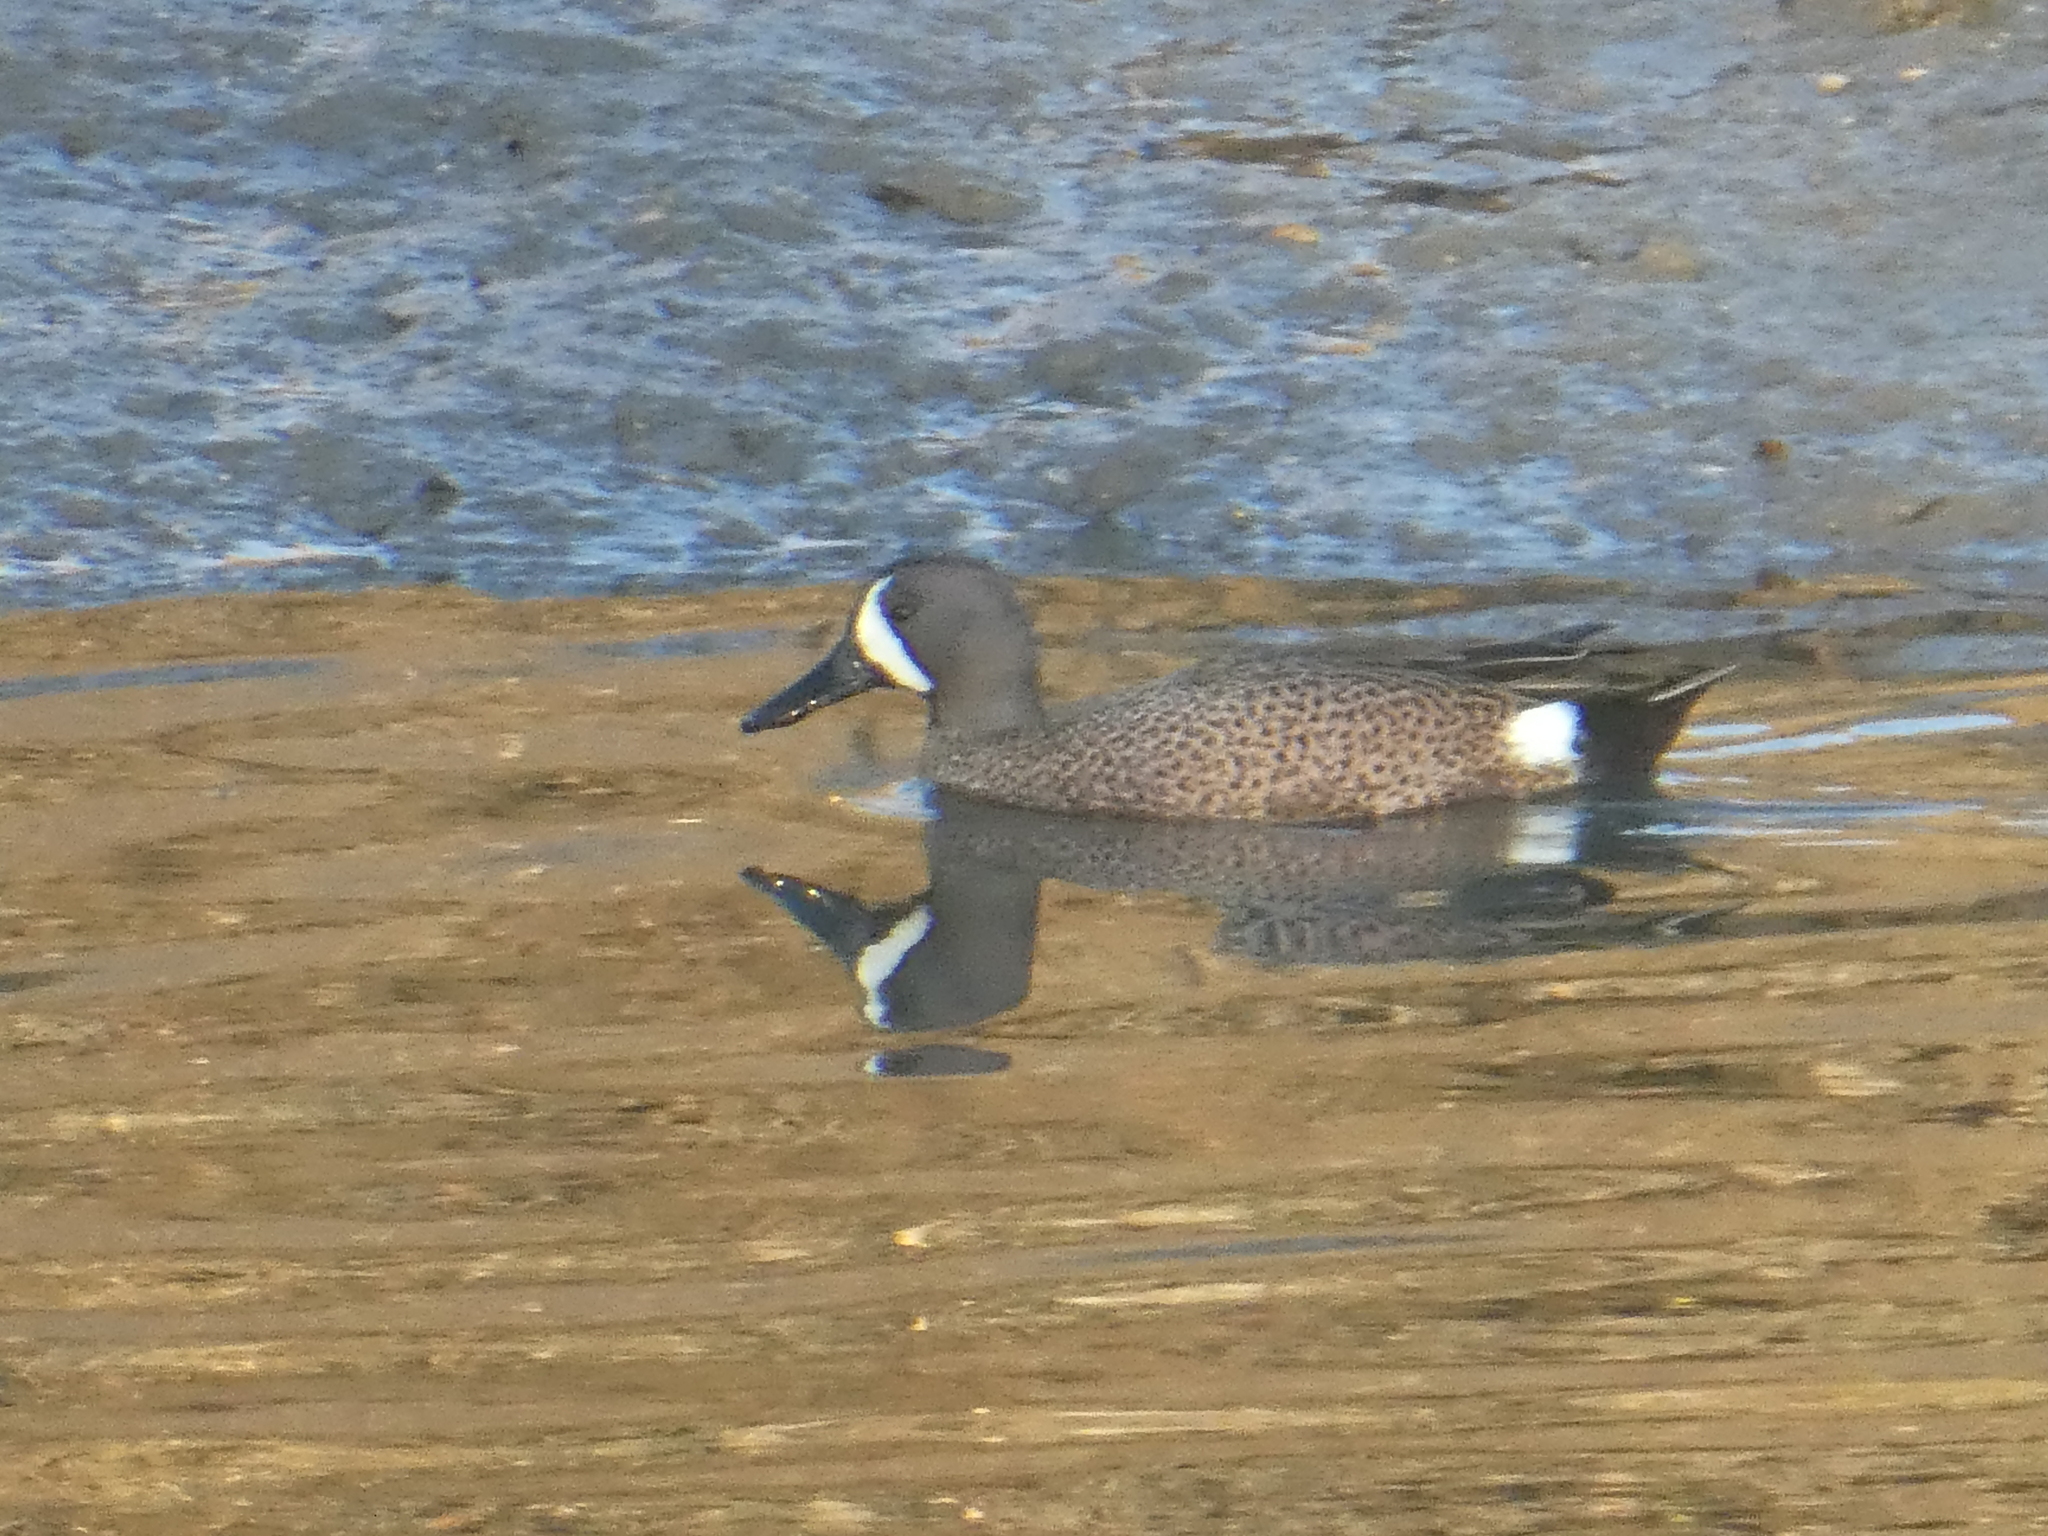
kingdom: Animalia
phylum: Chordata
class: Aves
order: Anseriformes
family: Anatidae
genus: Spatula
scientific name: Spatula discors
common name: Blue-winged teal
